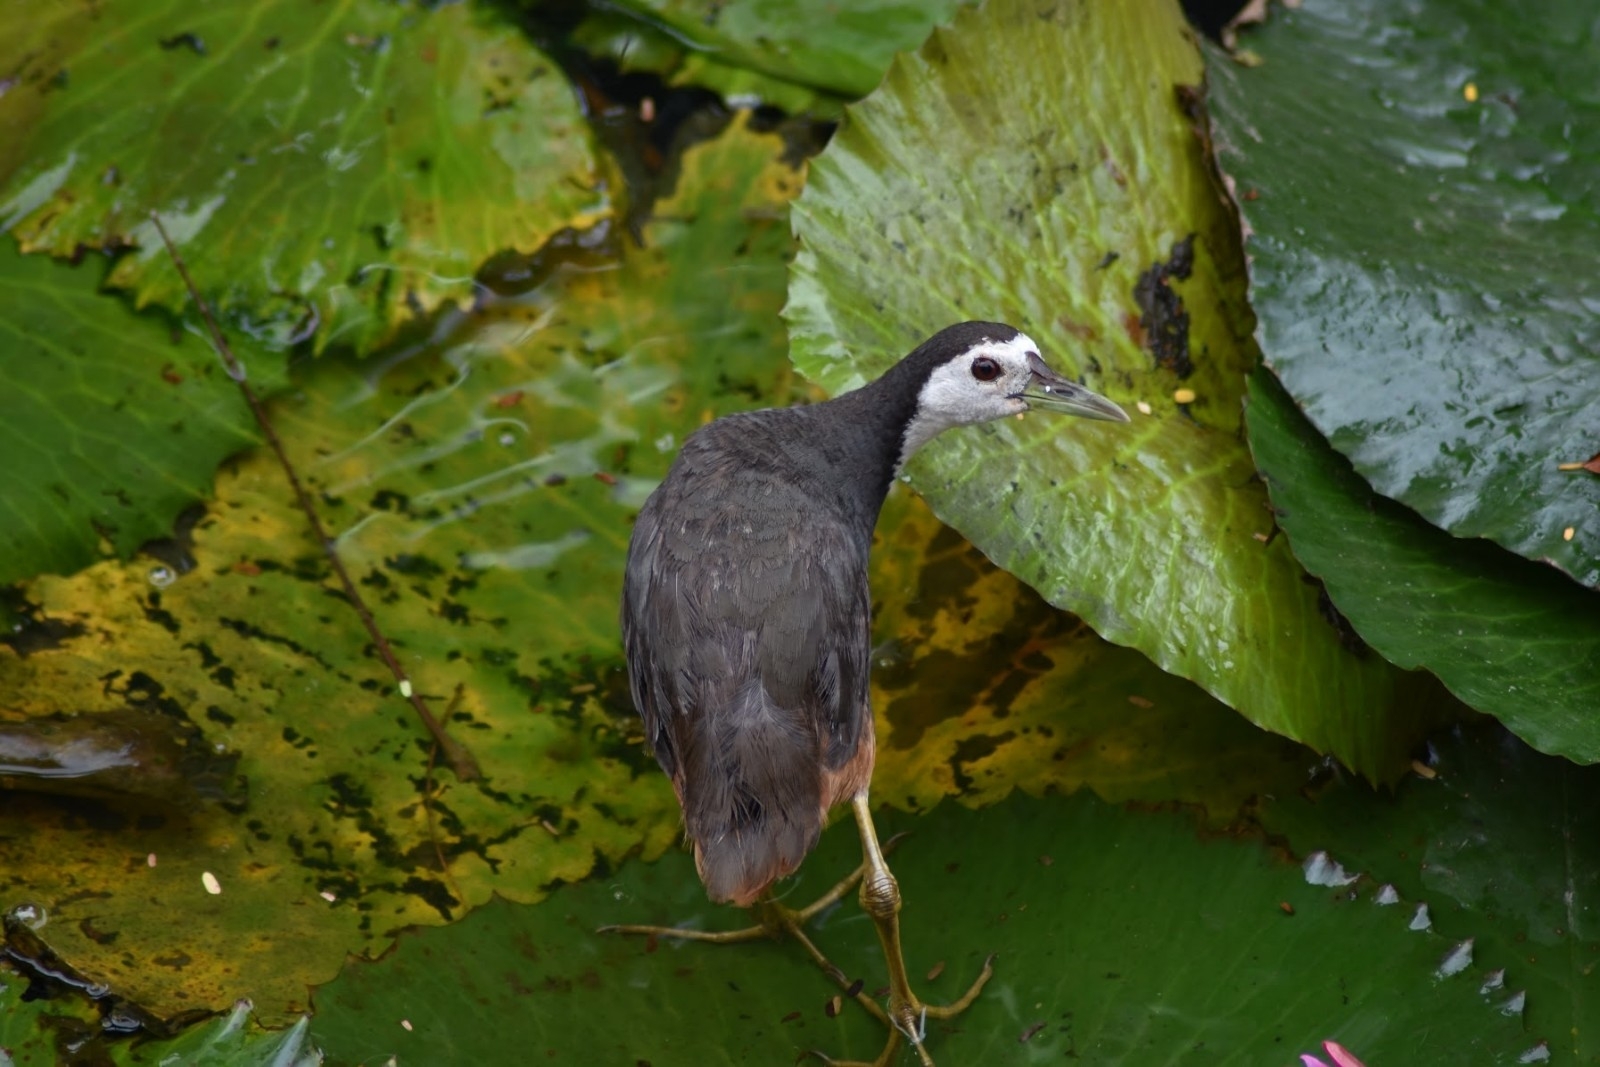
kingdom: Animalia
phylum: Chordata
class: Aves
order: Gruiformes
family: Rallidae
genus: Amaurornis
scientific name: Amaurornis phoenicurus
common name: White-breasted waterhen
